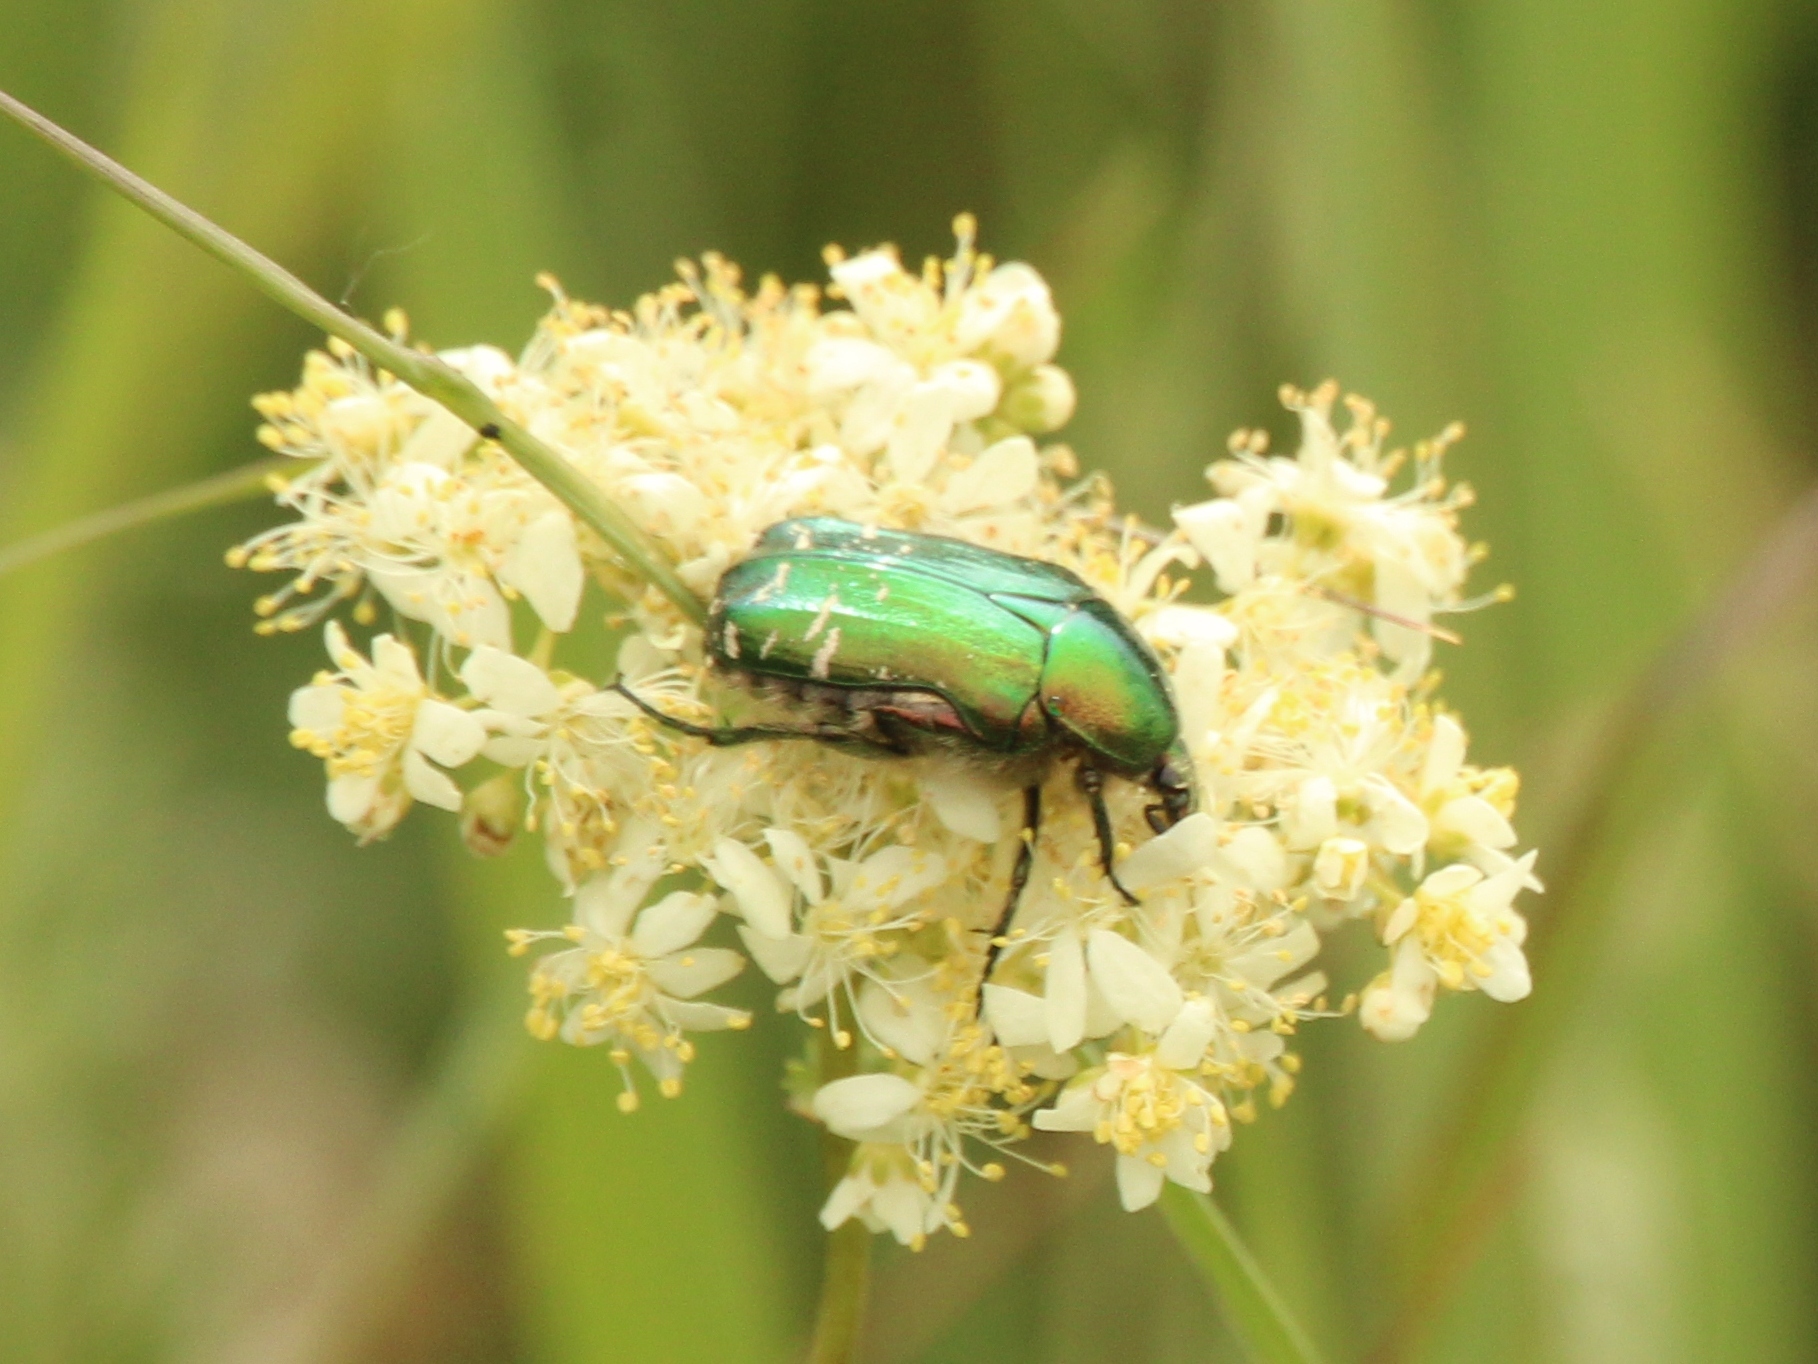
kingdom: Animalia
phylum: Arthropoda
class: Insecta
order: Coleoptera
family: Scarabaeidae
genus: Cetonia
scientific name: Cetonia aurata
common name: Rose chafer
